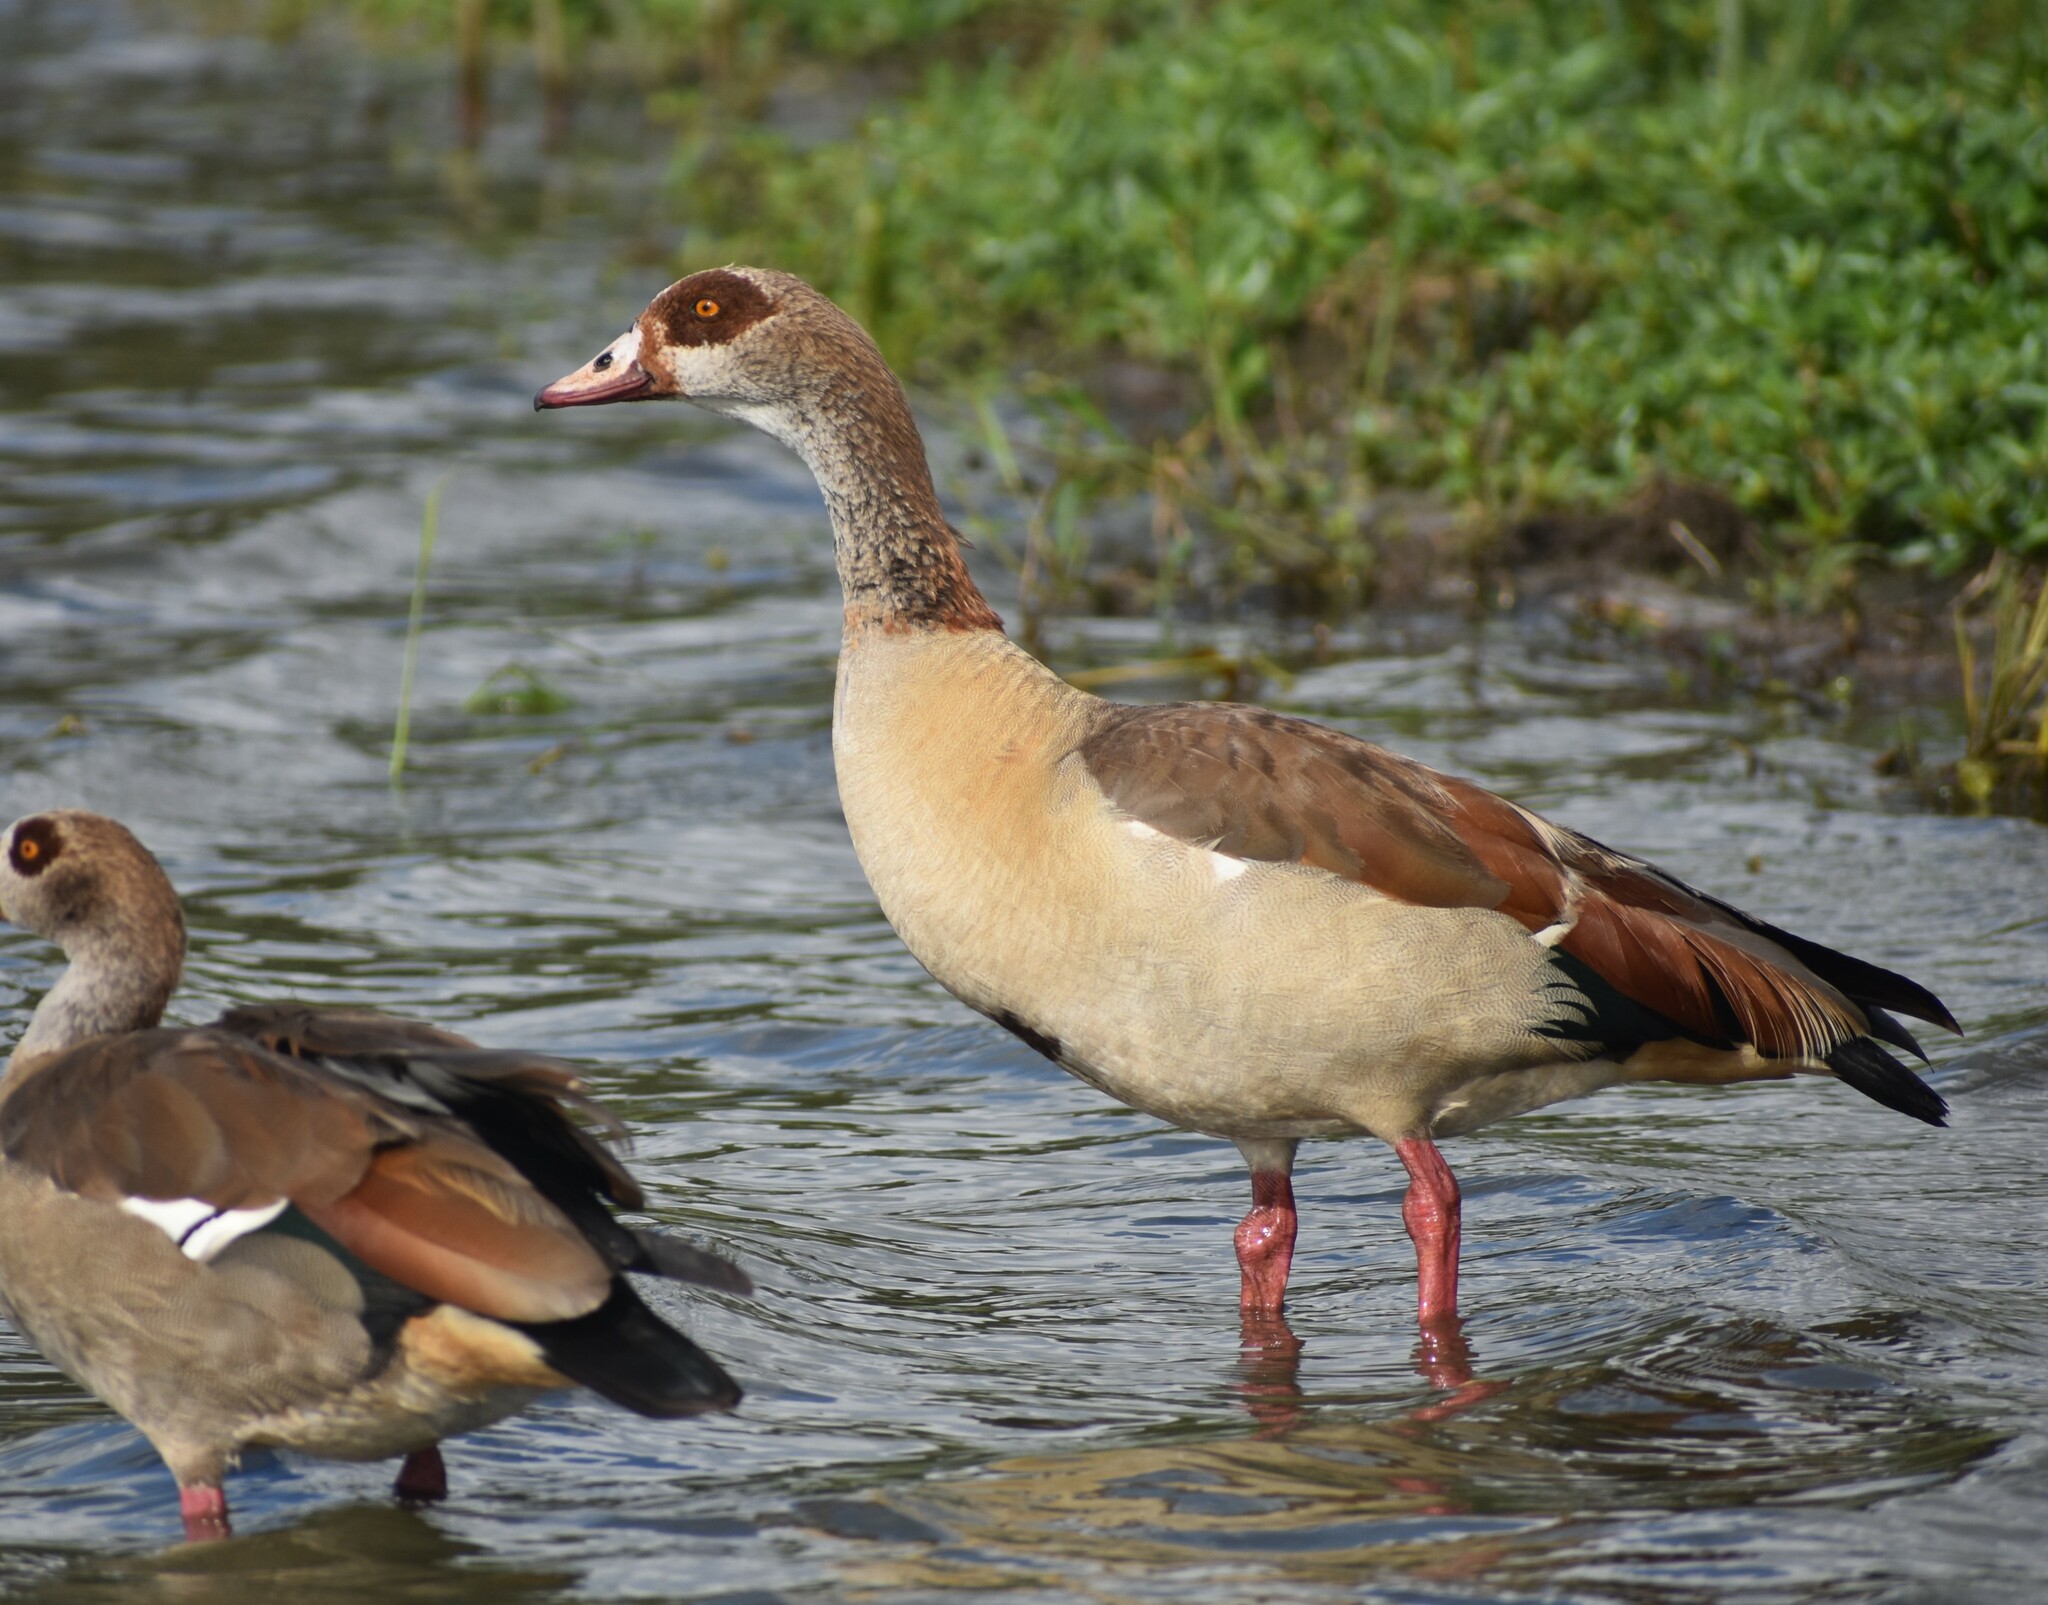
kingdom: Animalia
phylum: Chordata
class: Aves
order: Anseriformes
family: Anatidae
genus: Alopochen
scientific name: Alopochen aegyptiaca
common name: Egyptian goose
